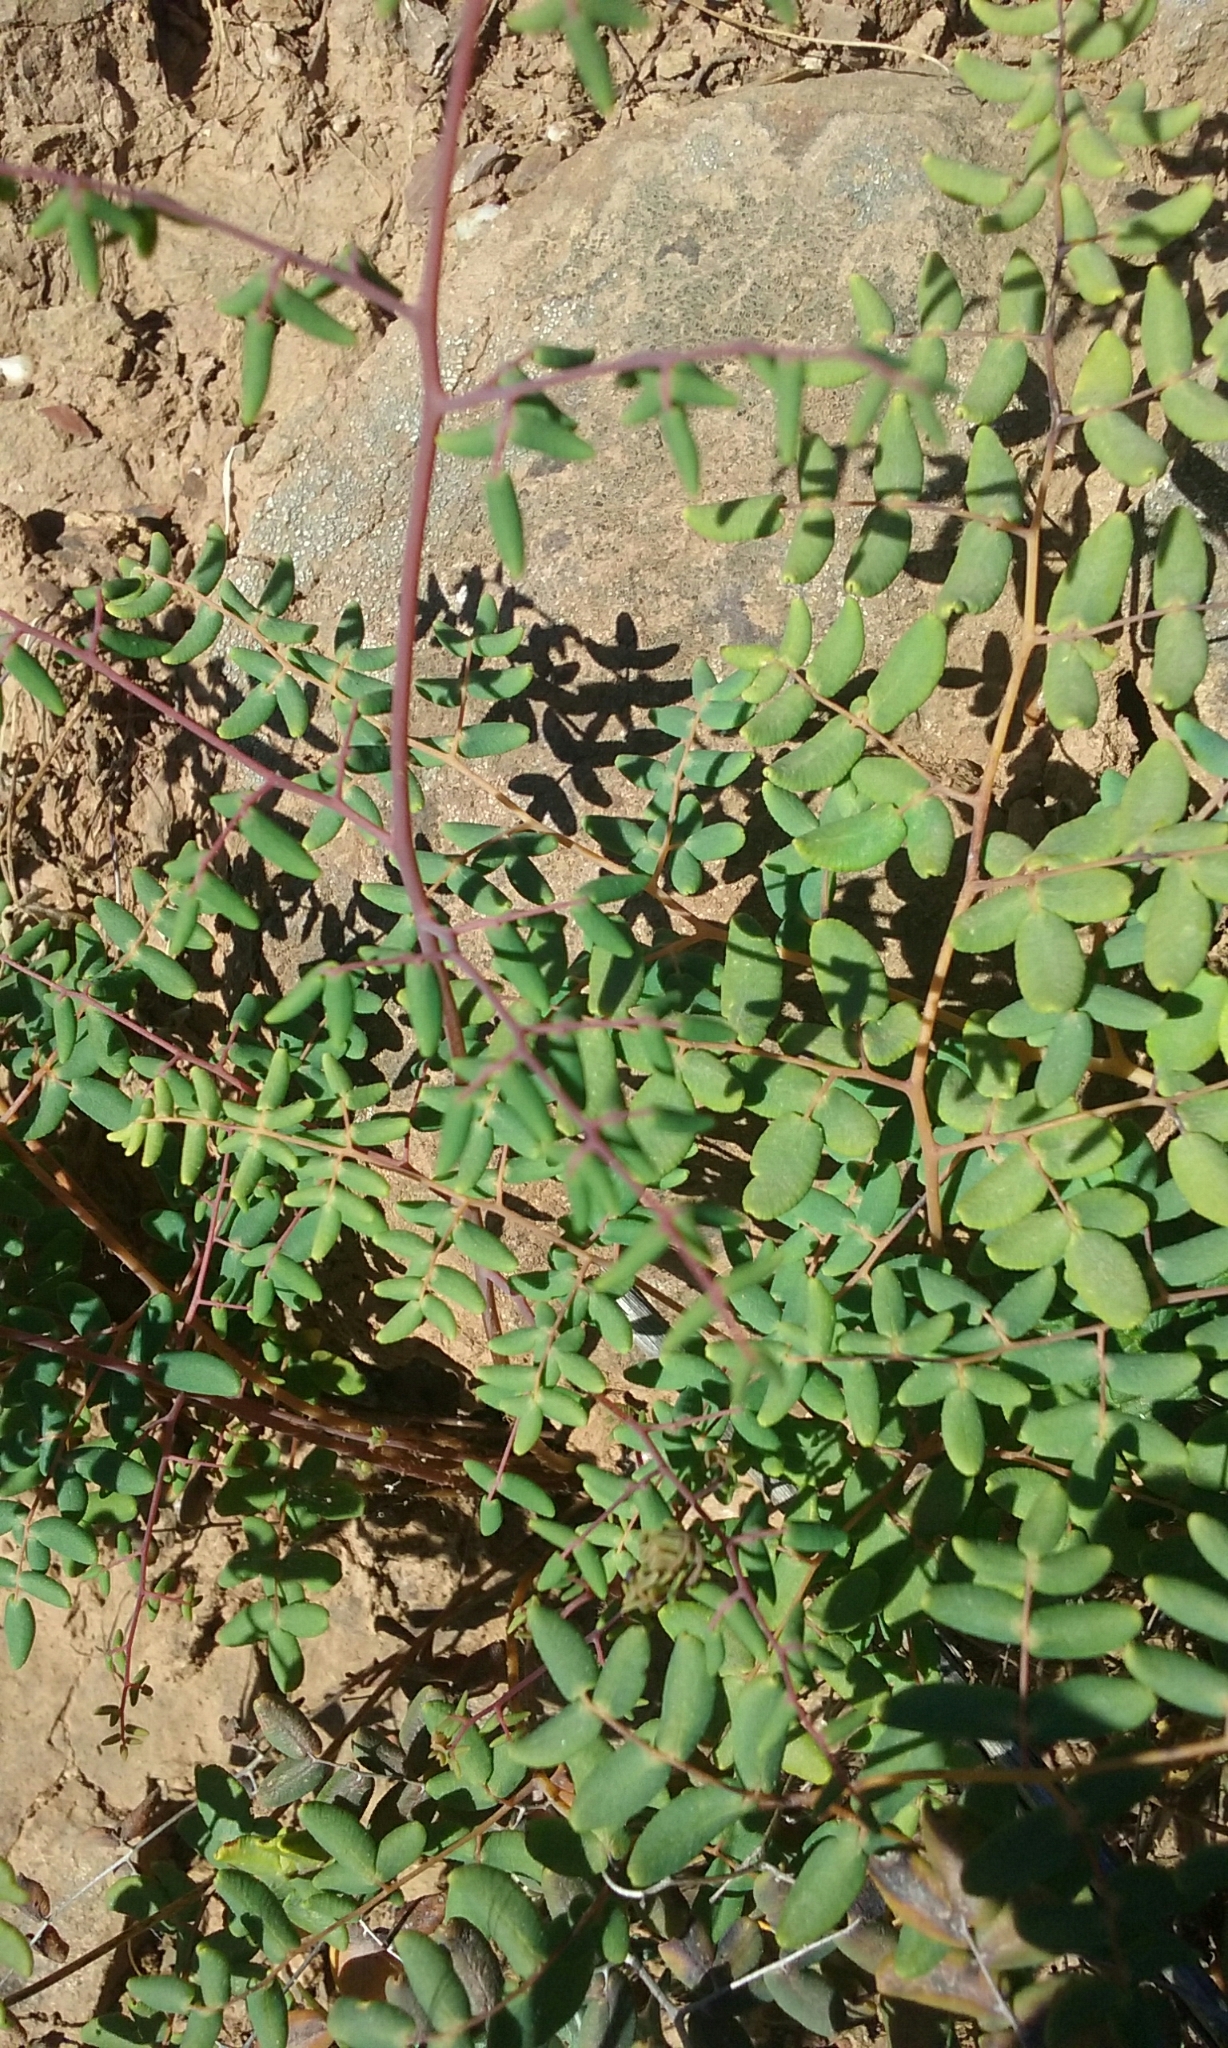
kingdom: Plantae
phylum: Tracheophyta
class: Polypodiopsida
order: Polypodiales
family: Pteridaceae
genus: Pellaea
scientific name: Pellaea andromedifolia
